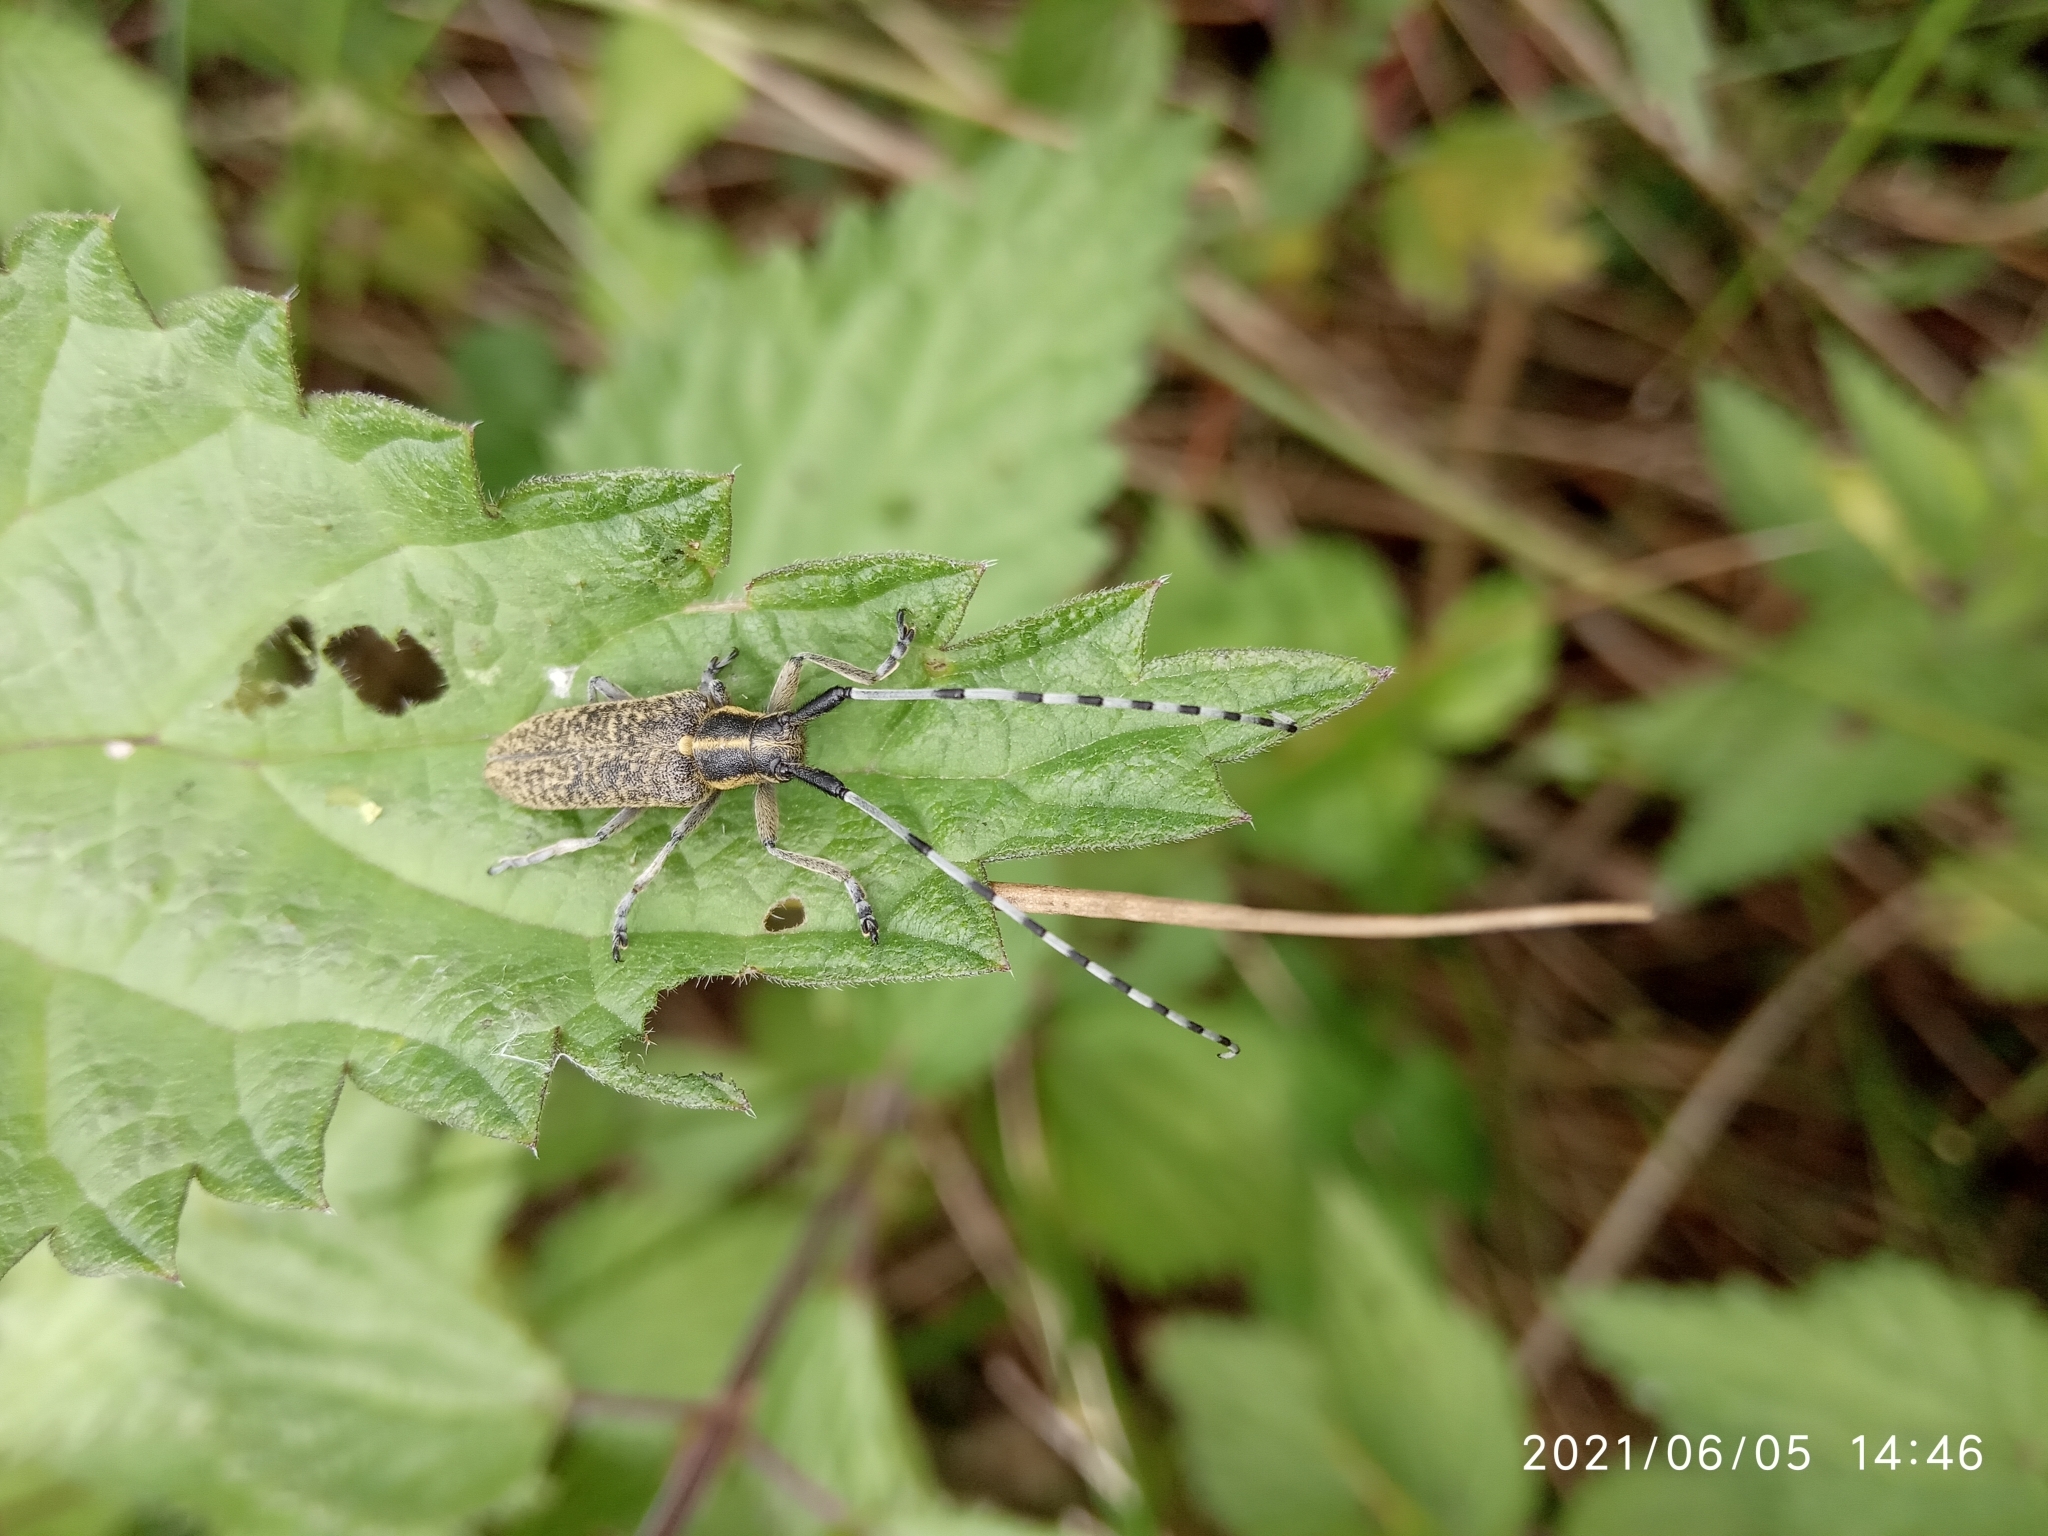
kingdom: Animalia
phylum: Arthropoda
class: Insecta
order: Coleoptera
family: Cerambycidae
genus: Agapanthia
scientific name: Agapanthia villosoviridescens
